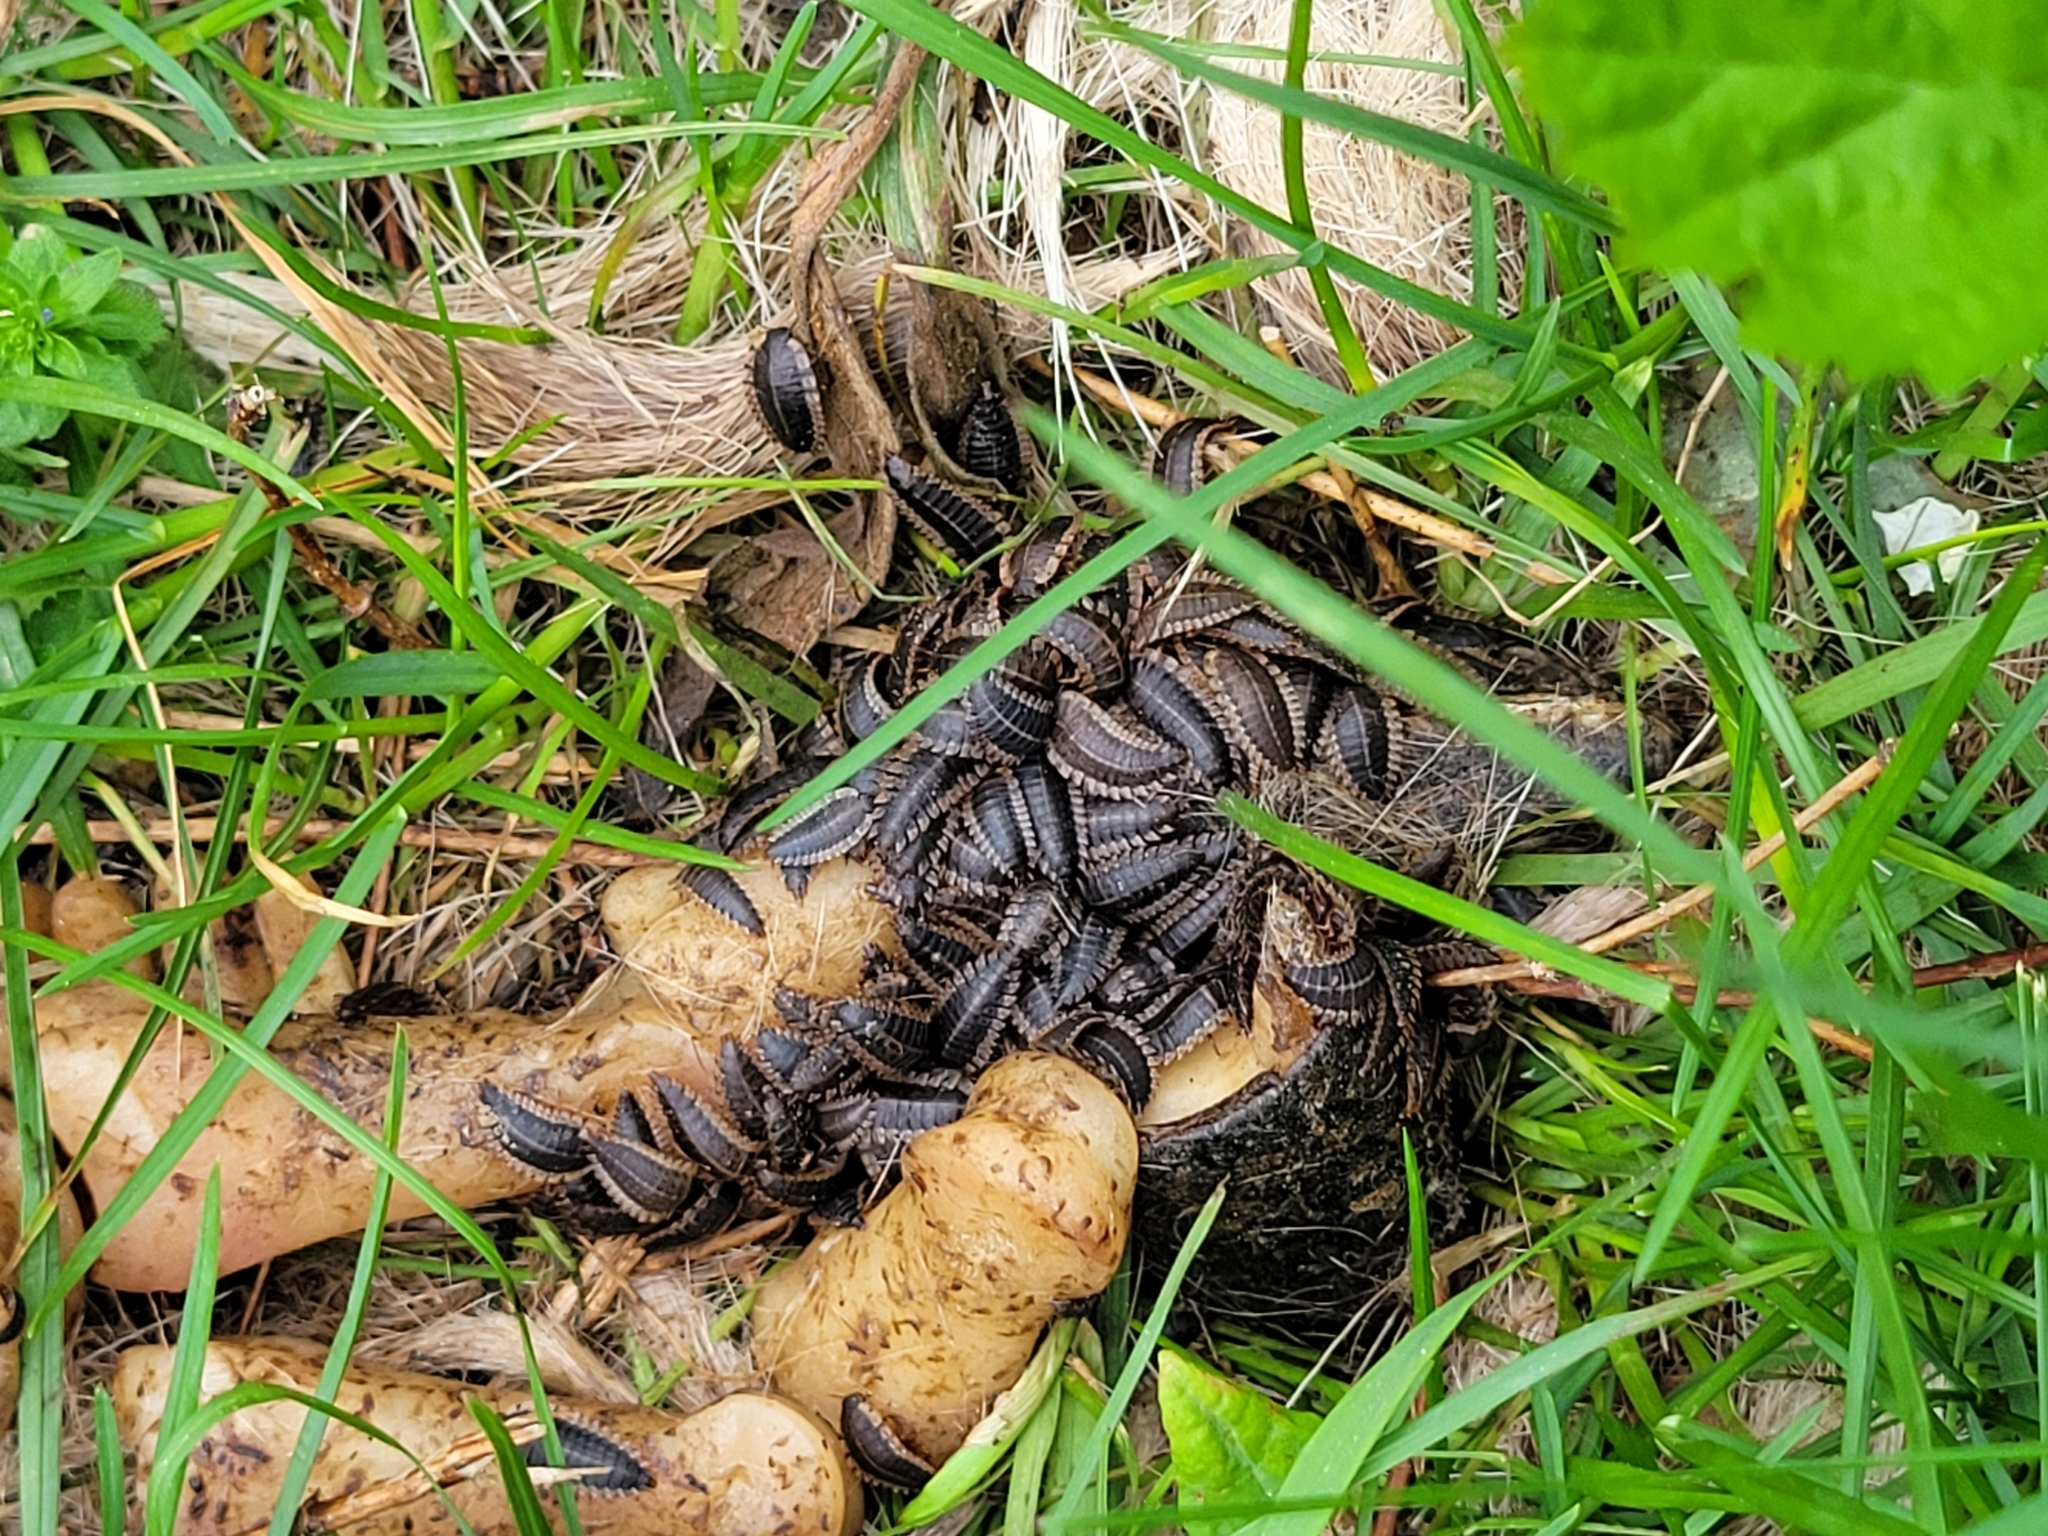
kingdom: Animalia
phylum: Arthropoda
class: Insecta
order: Coleoptera
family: Staphylinidae
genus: Oiceoptoma
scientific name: Oiceoptoma noveboracense
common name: Margined carrion beetle
